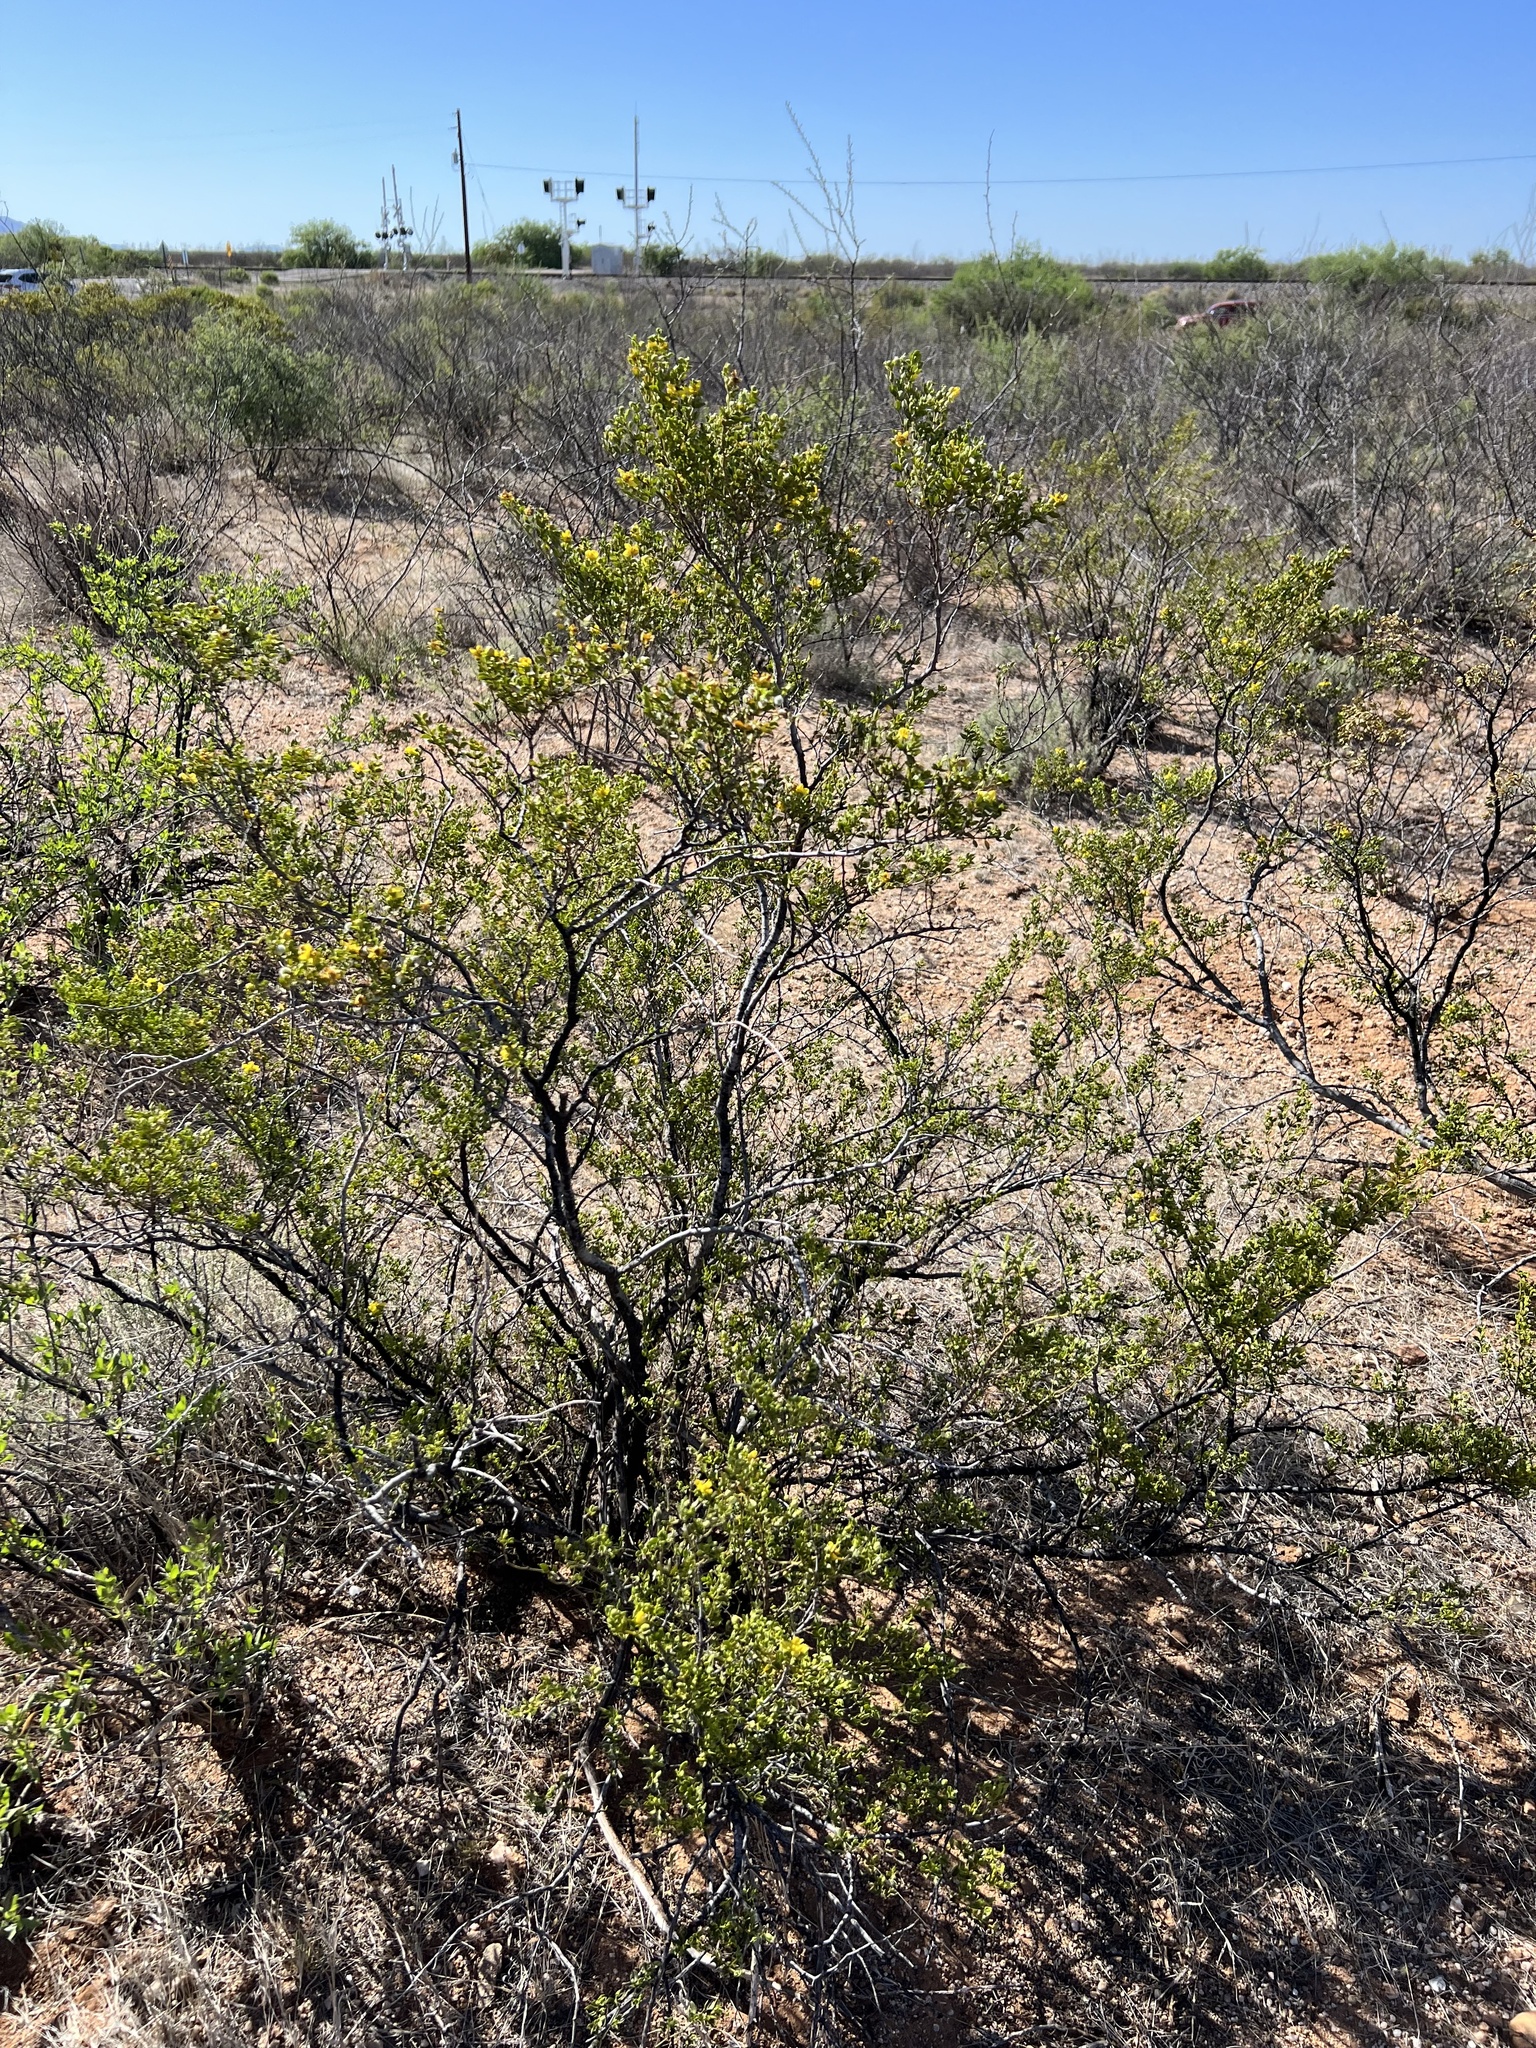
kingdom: Plantae
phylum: Tracheophyta
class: Magnoliopsida
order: Zygophyllales
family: Zygophyllaceae
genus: Larrea
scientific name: Larrea tridentata
